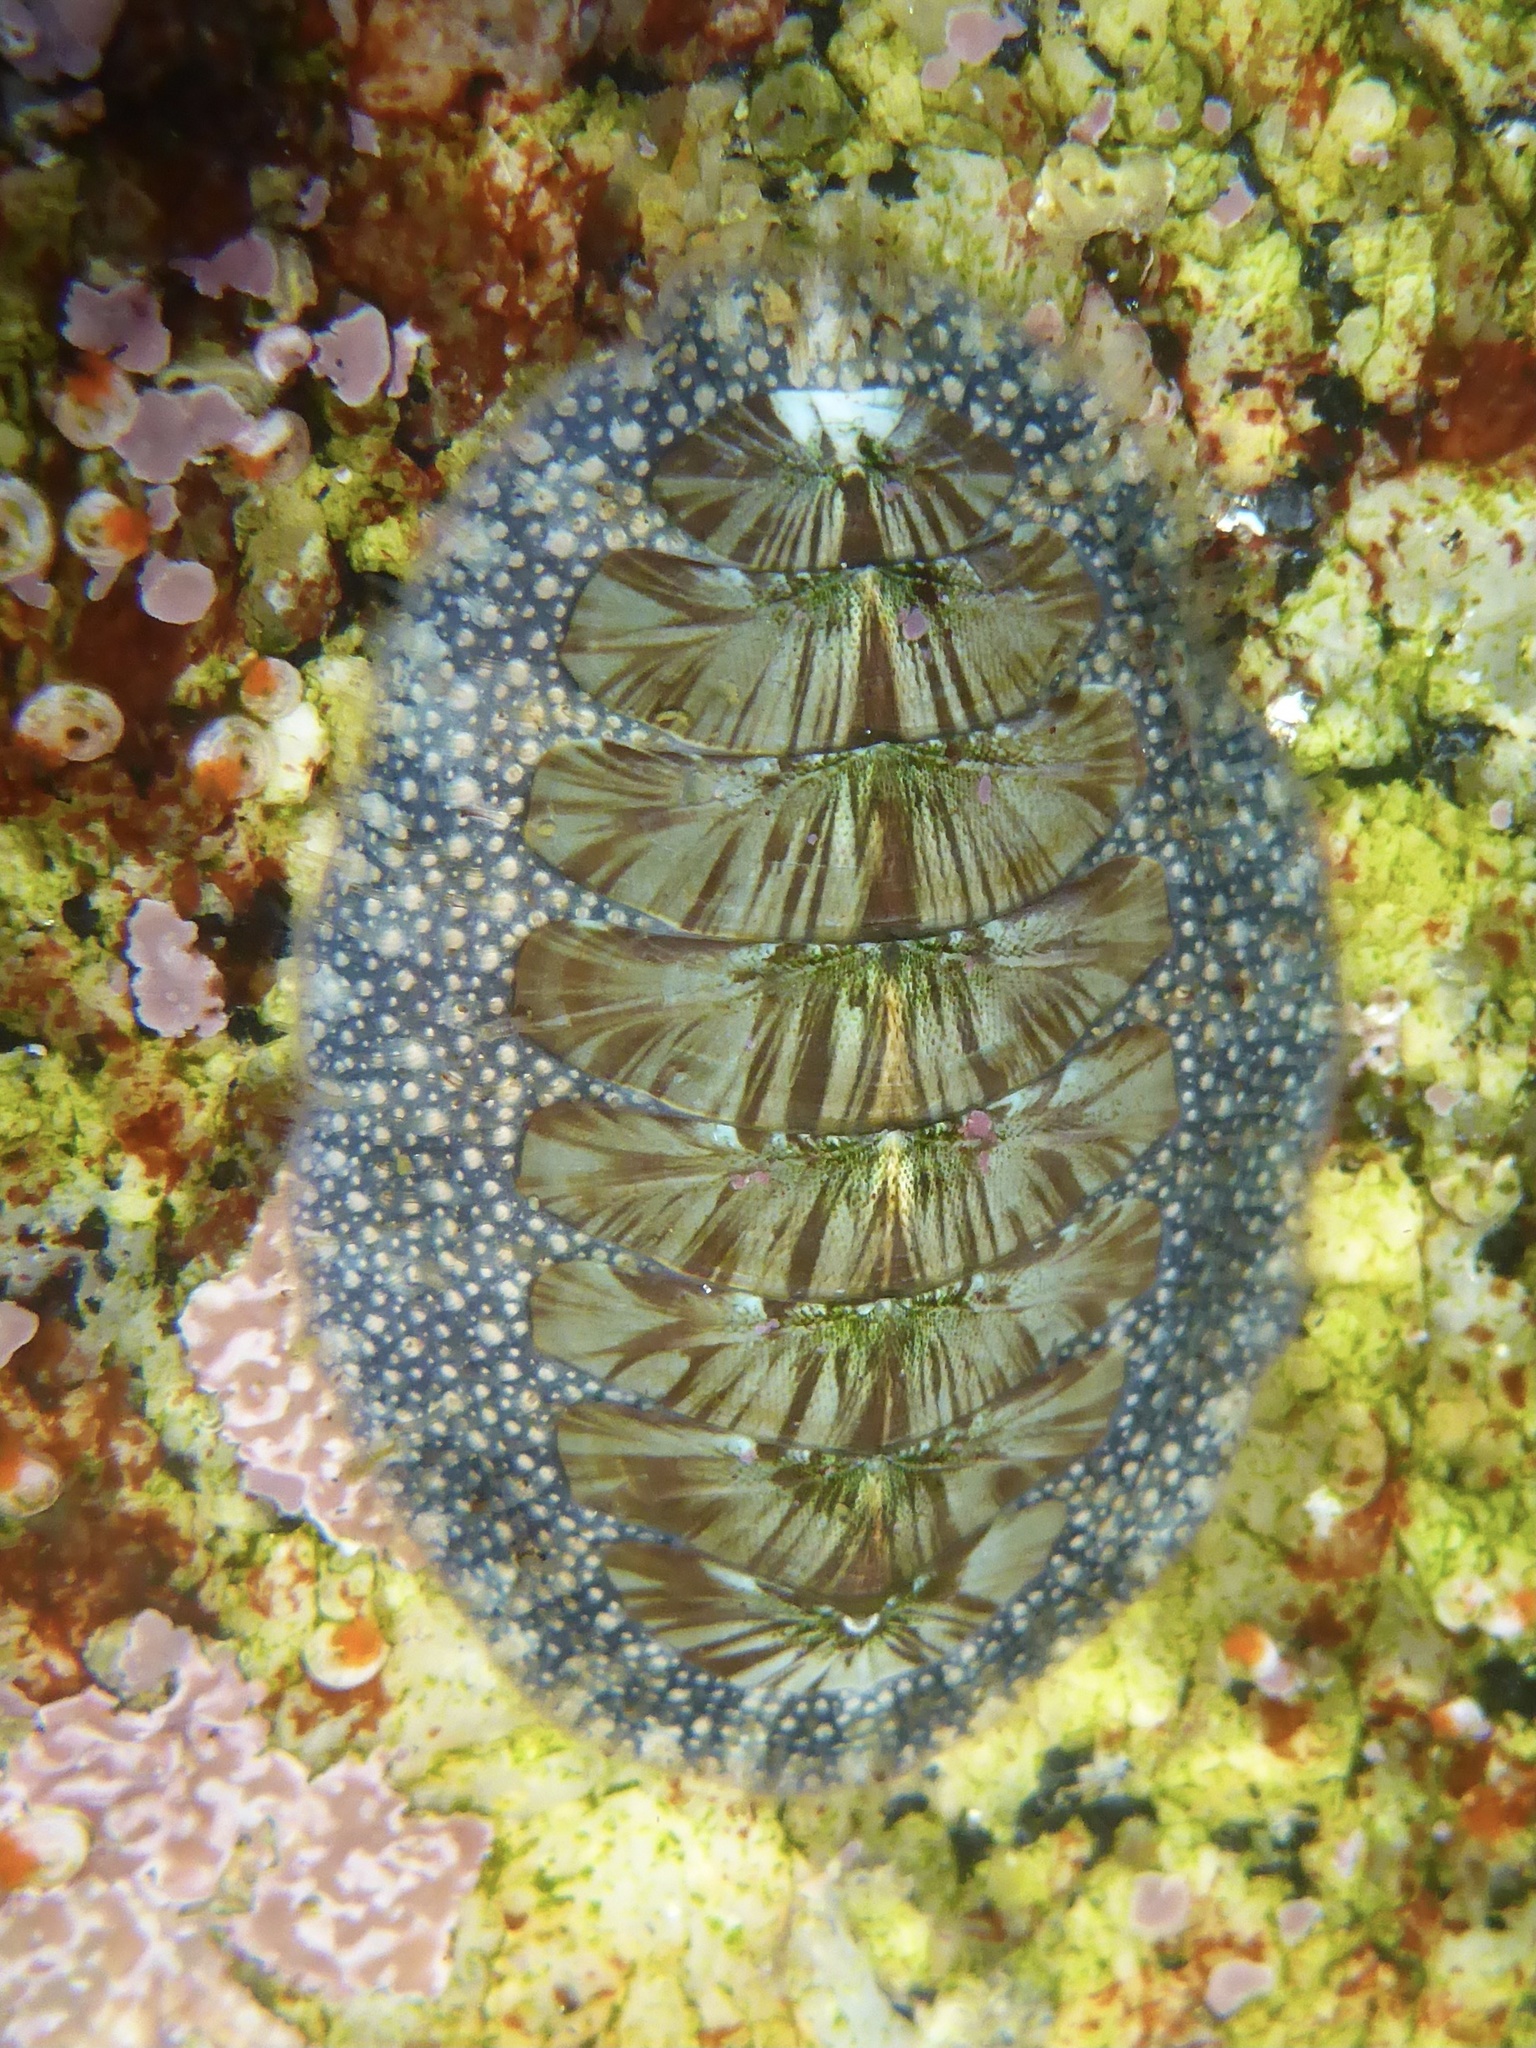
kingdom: Animalia
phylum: Mollusca
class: Polyplacophora
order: Chitonida
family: Mopaliidae
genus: Mopalia
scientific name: Mopalia lignosa
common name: Woody chiton
